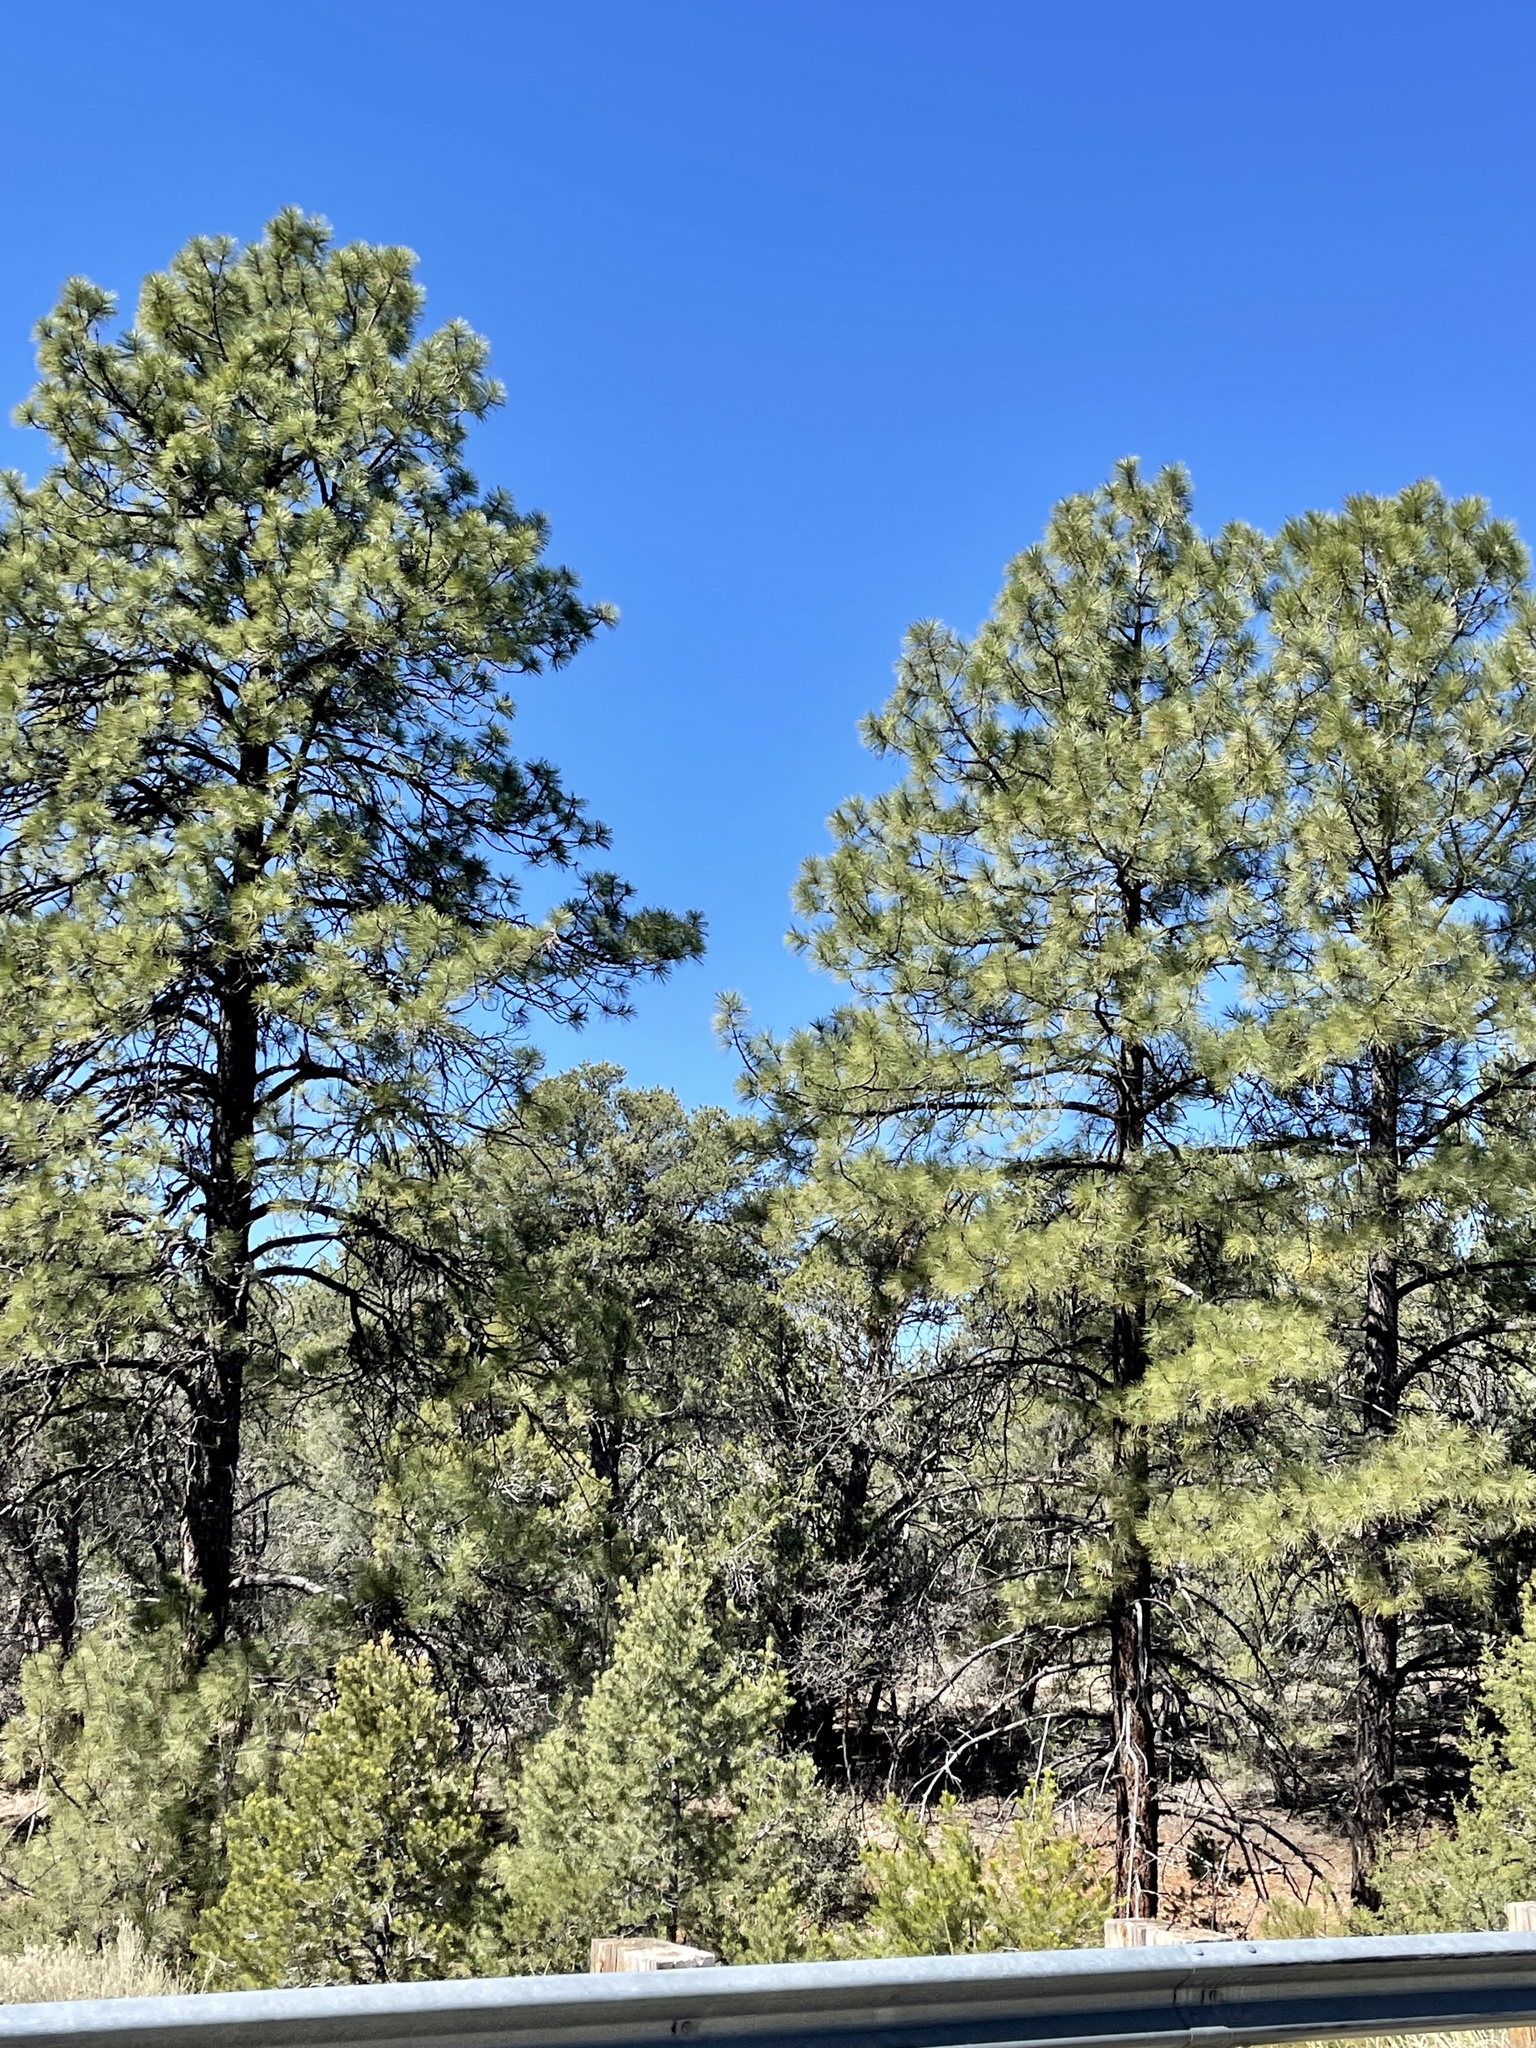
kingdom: Plantae
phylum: Tracheophyta
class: Pinopsida
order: Pinales
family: Pinaceae
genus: Pinus
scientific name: Pinus ponderosa
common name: Western yellow-pine
